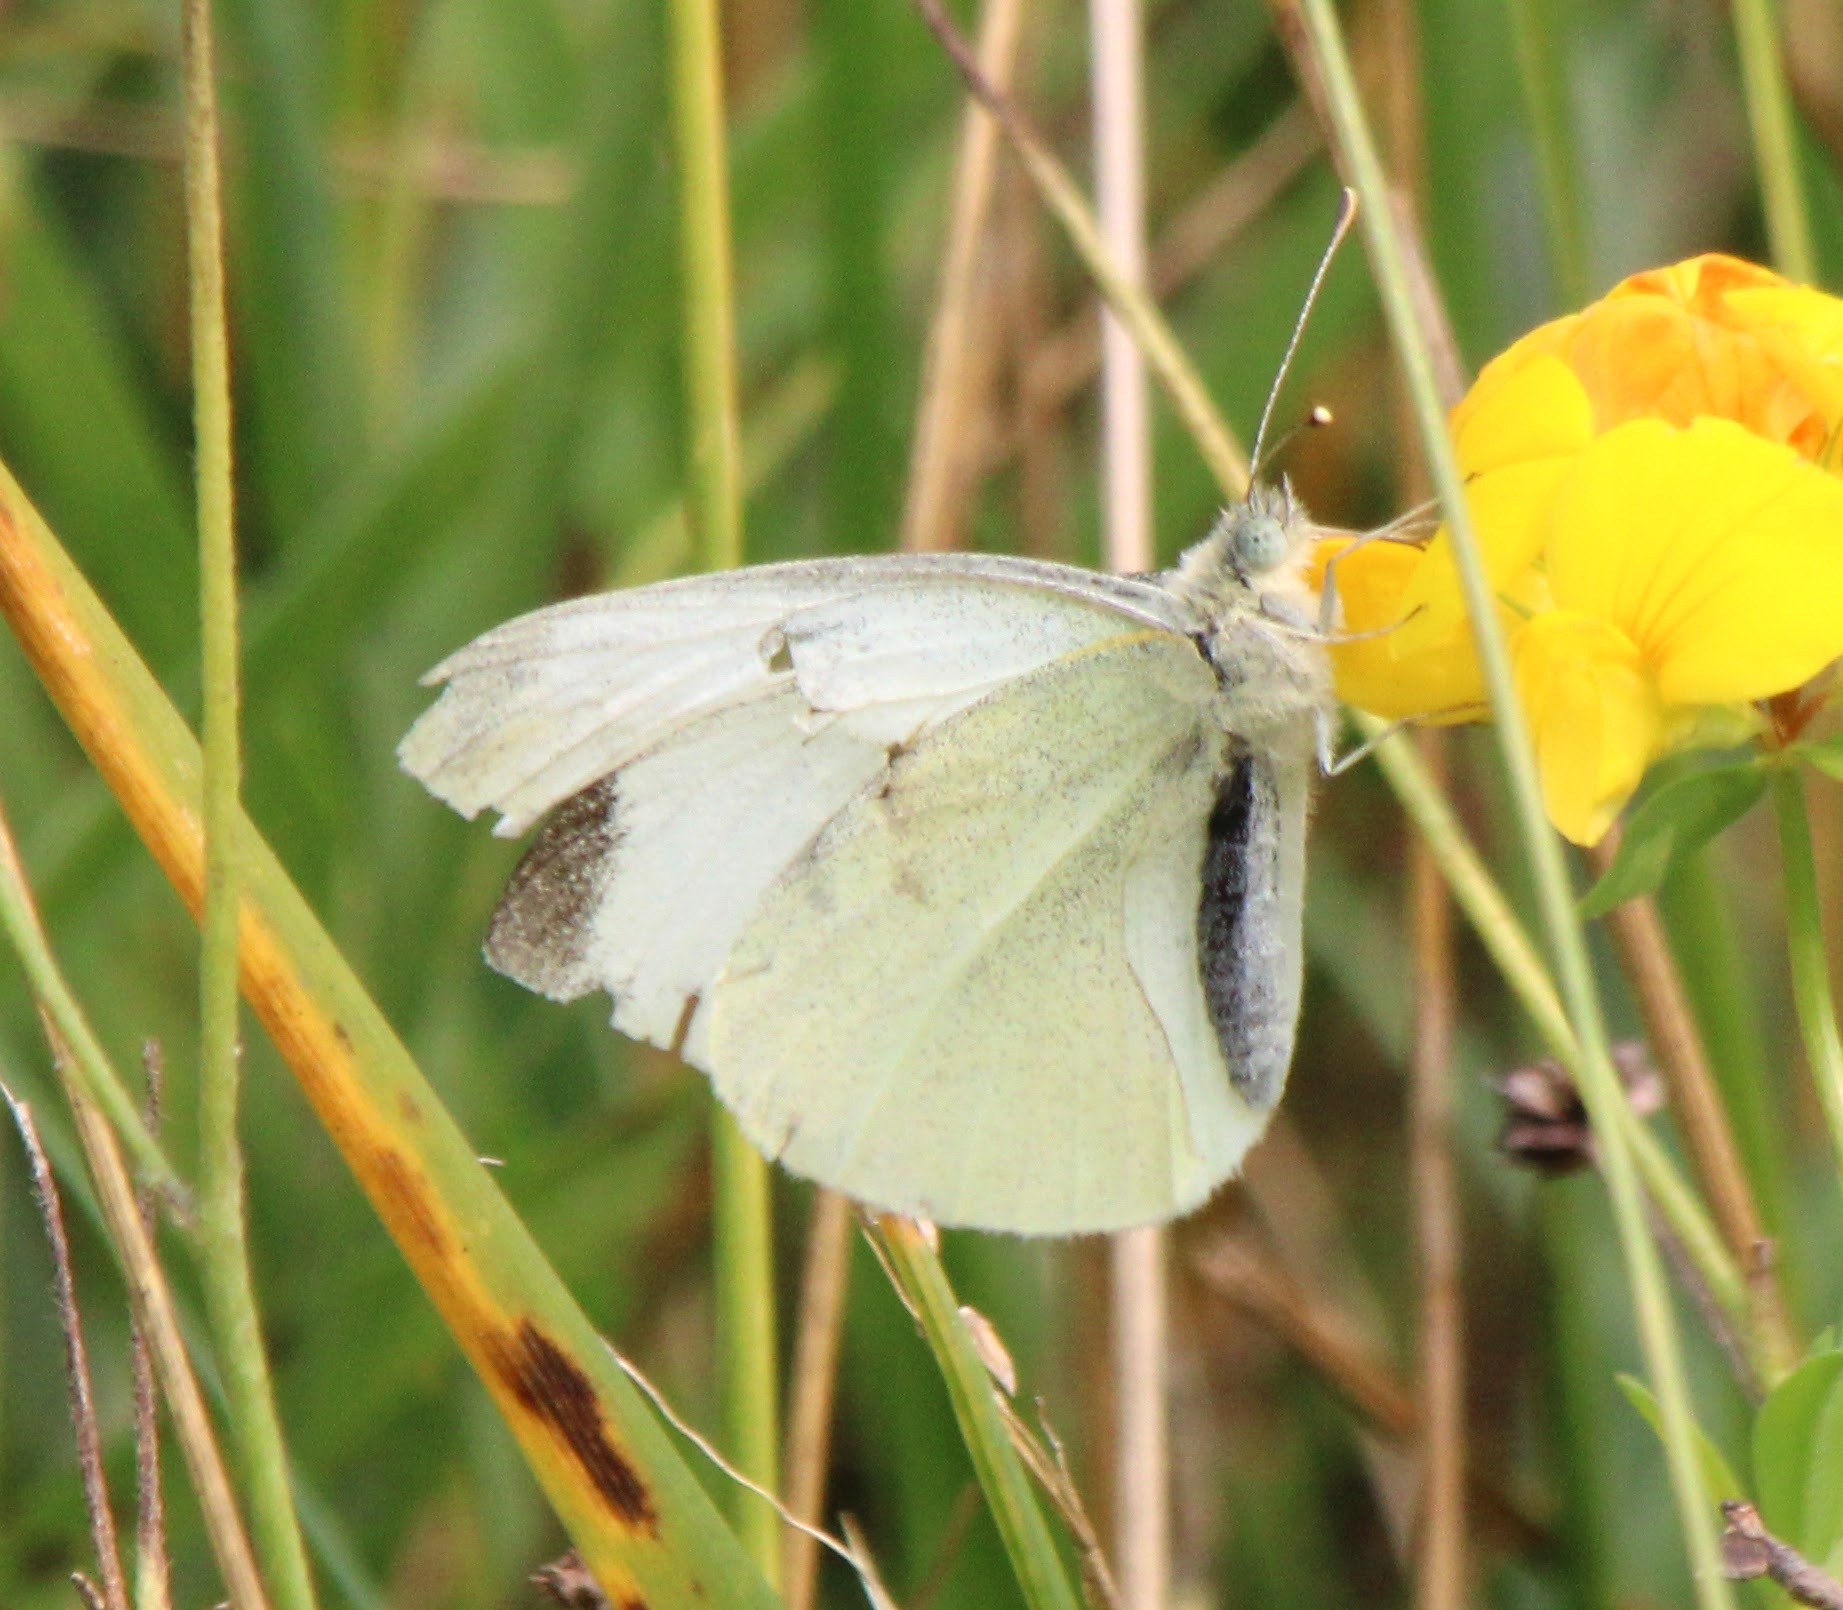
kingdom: Animalia
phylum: Arthropoda
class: Insecta
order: Lepidoptera
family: Pieridae
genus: Pieris
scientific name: Pieris rapae
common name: Small white
